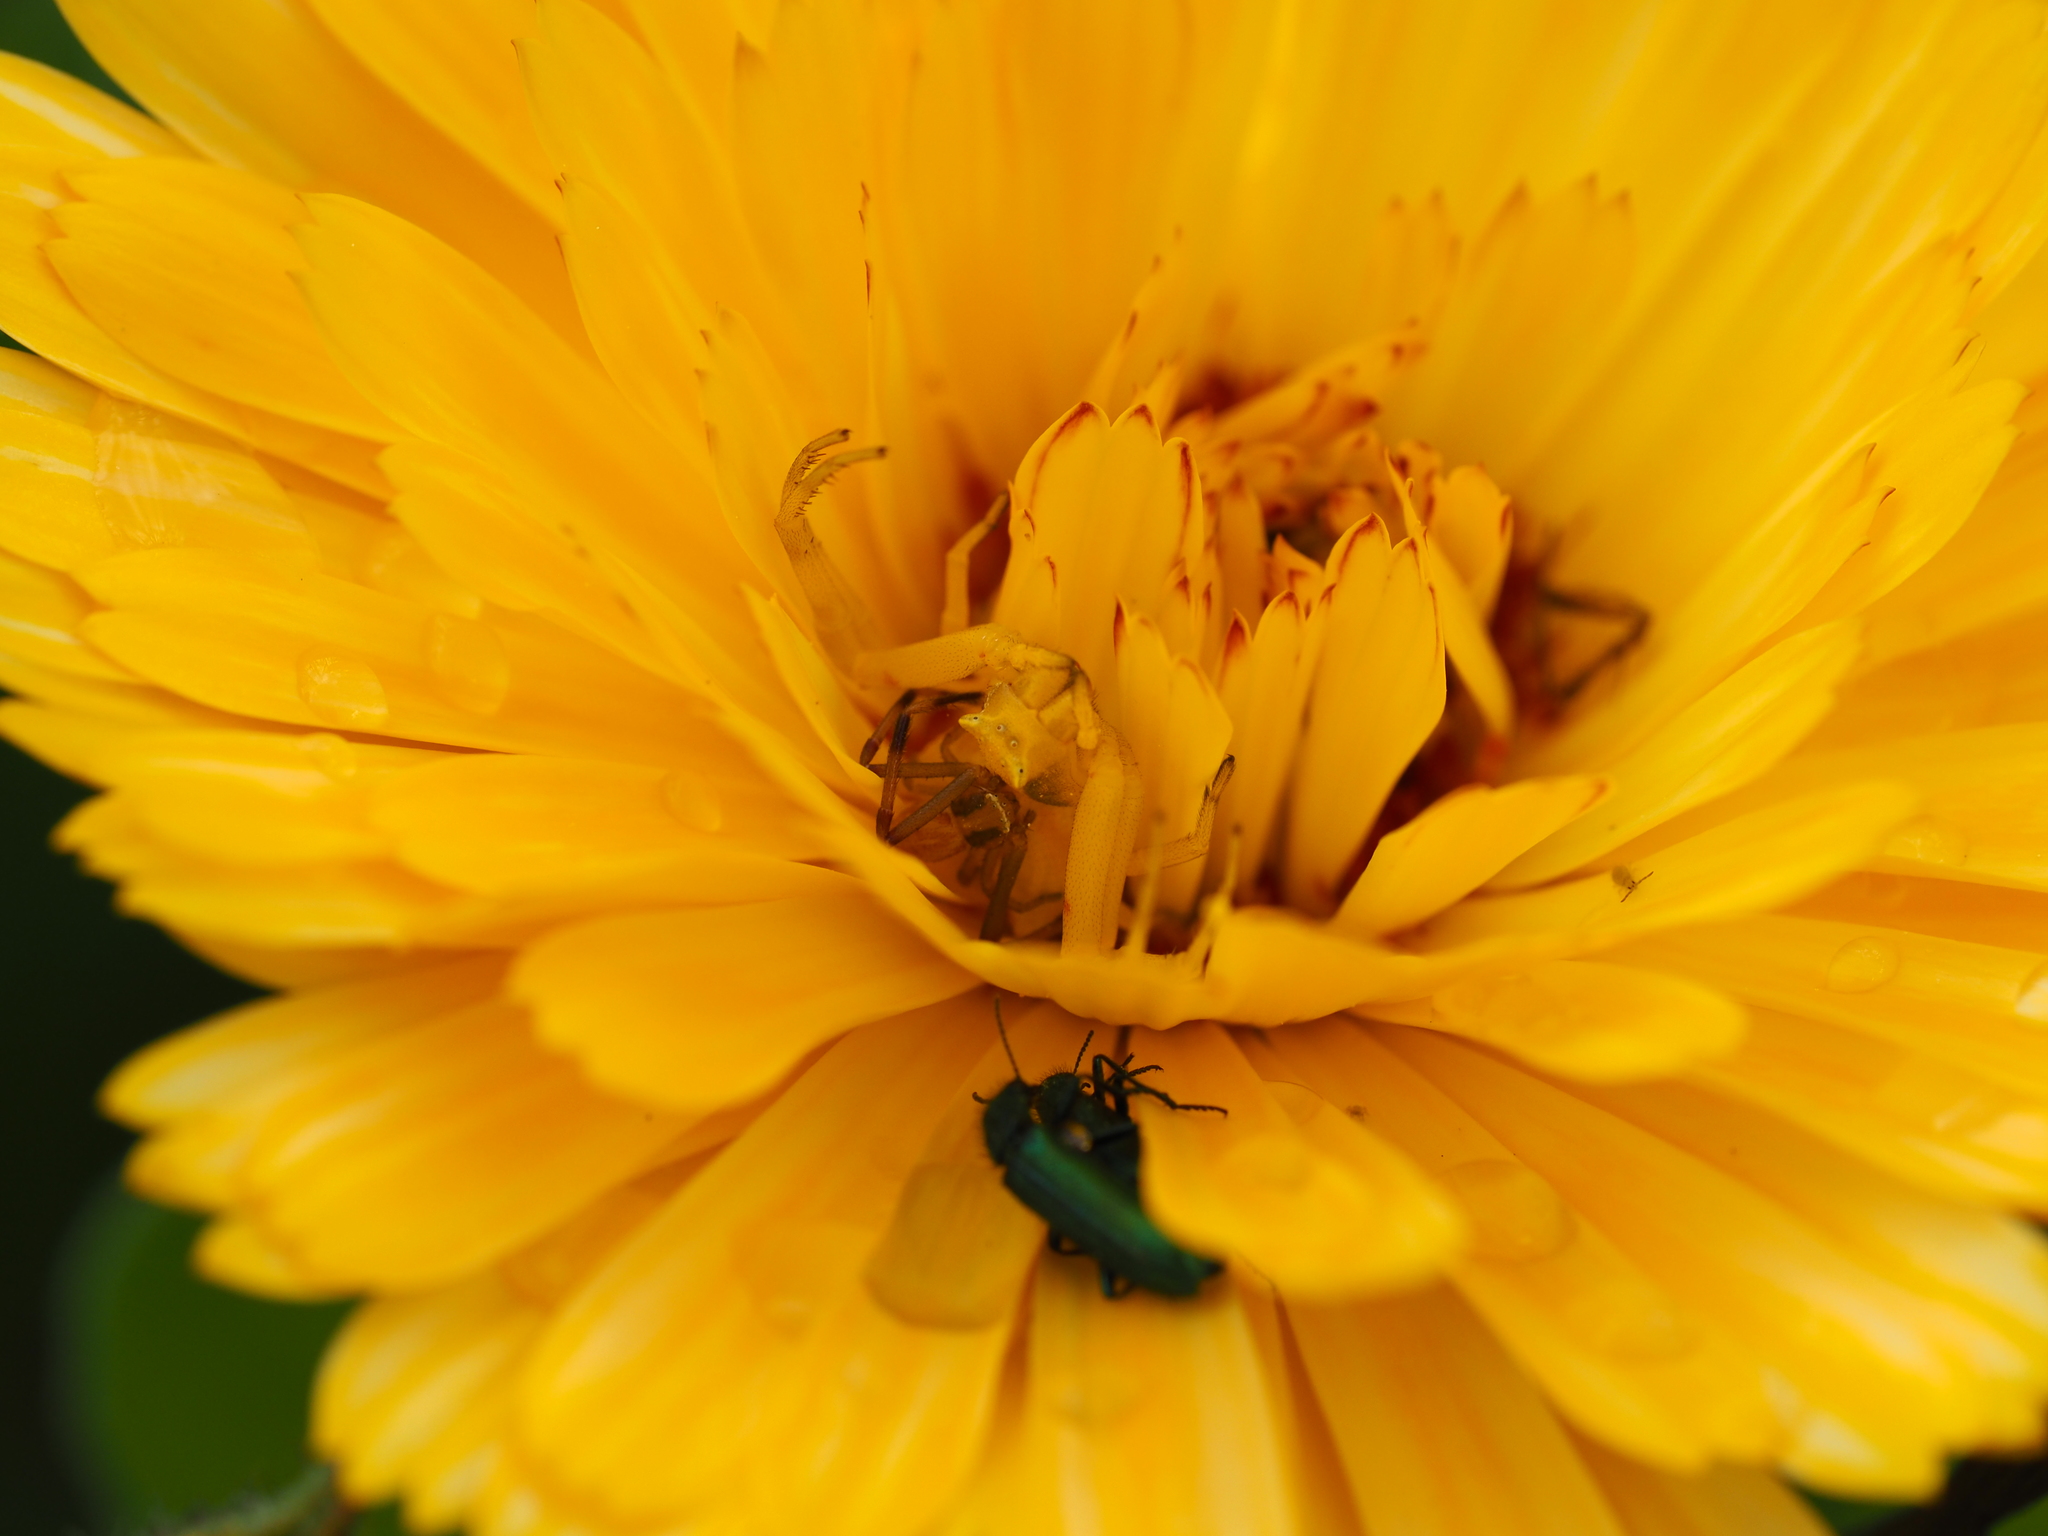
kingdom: Animalia
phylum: Arthropoda
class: Arachnida
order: Araneae
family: Thomisidae
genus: Thomisus
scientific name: Thomisus onustus
